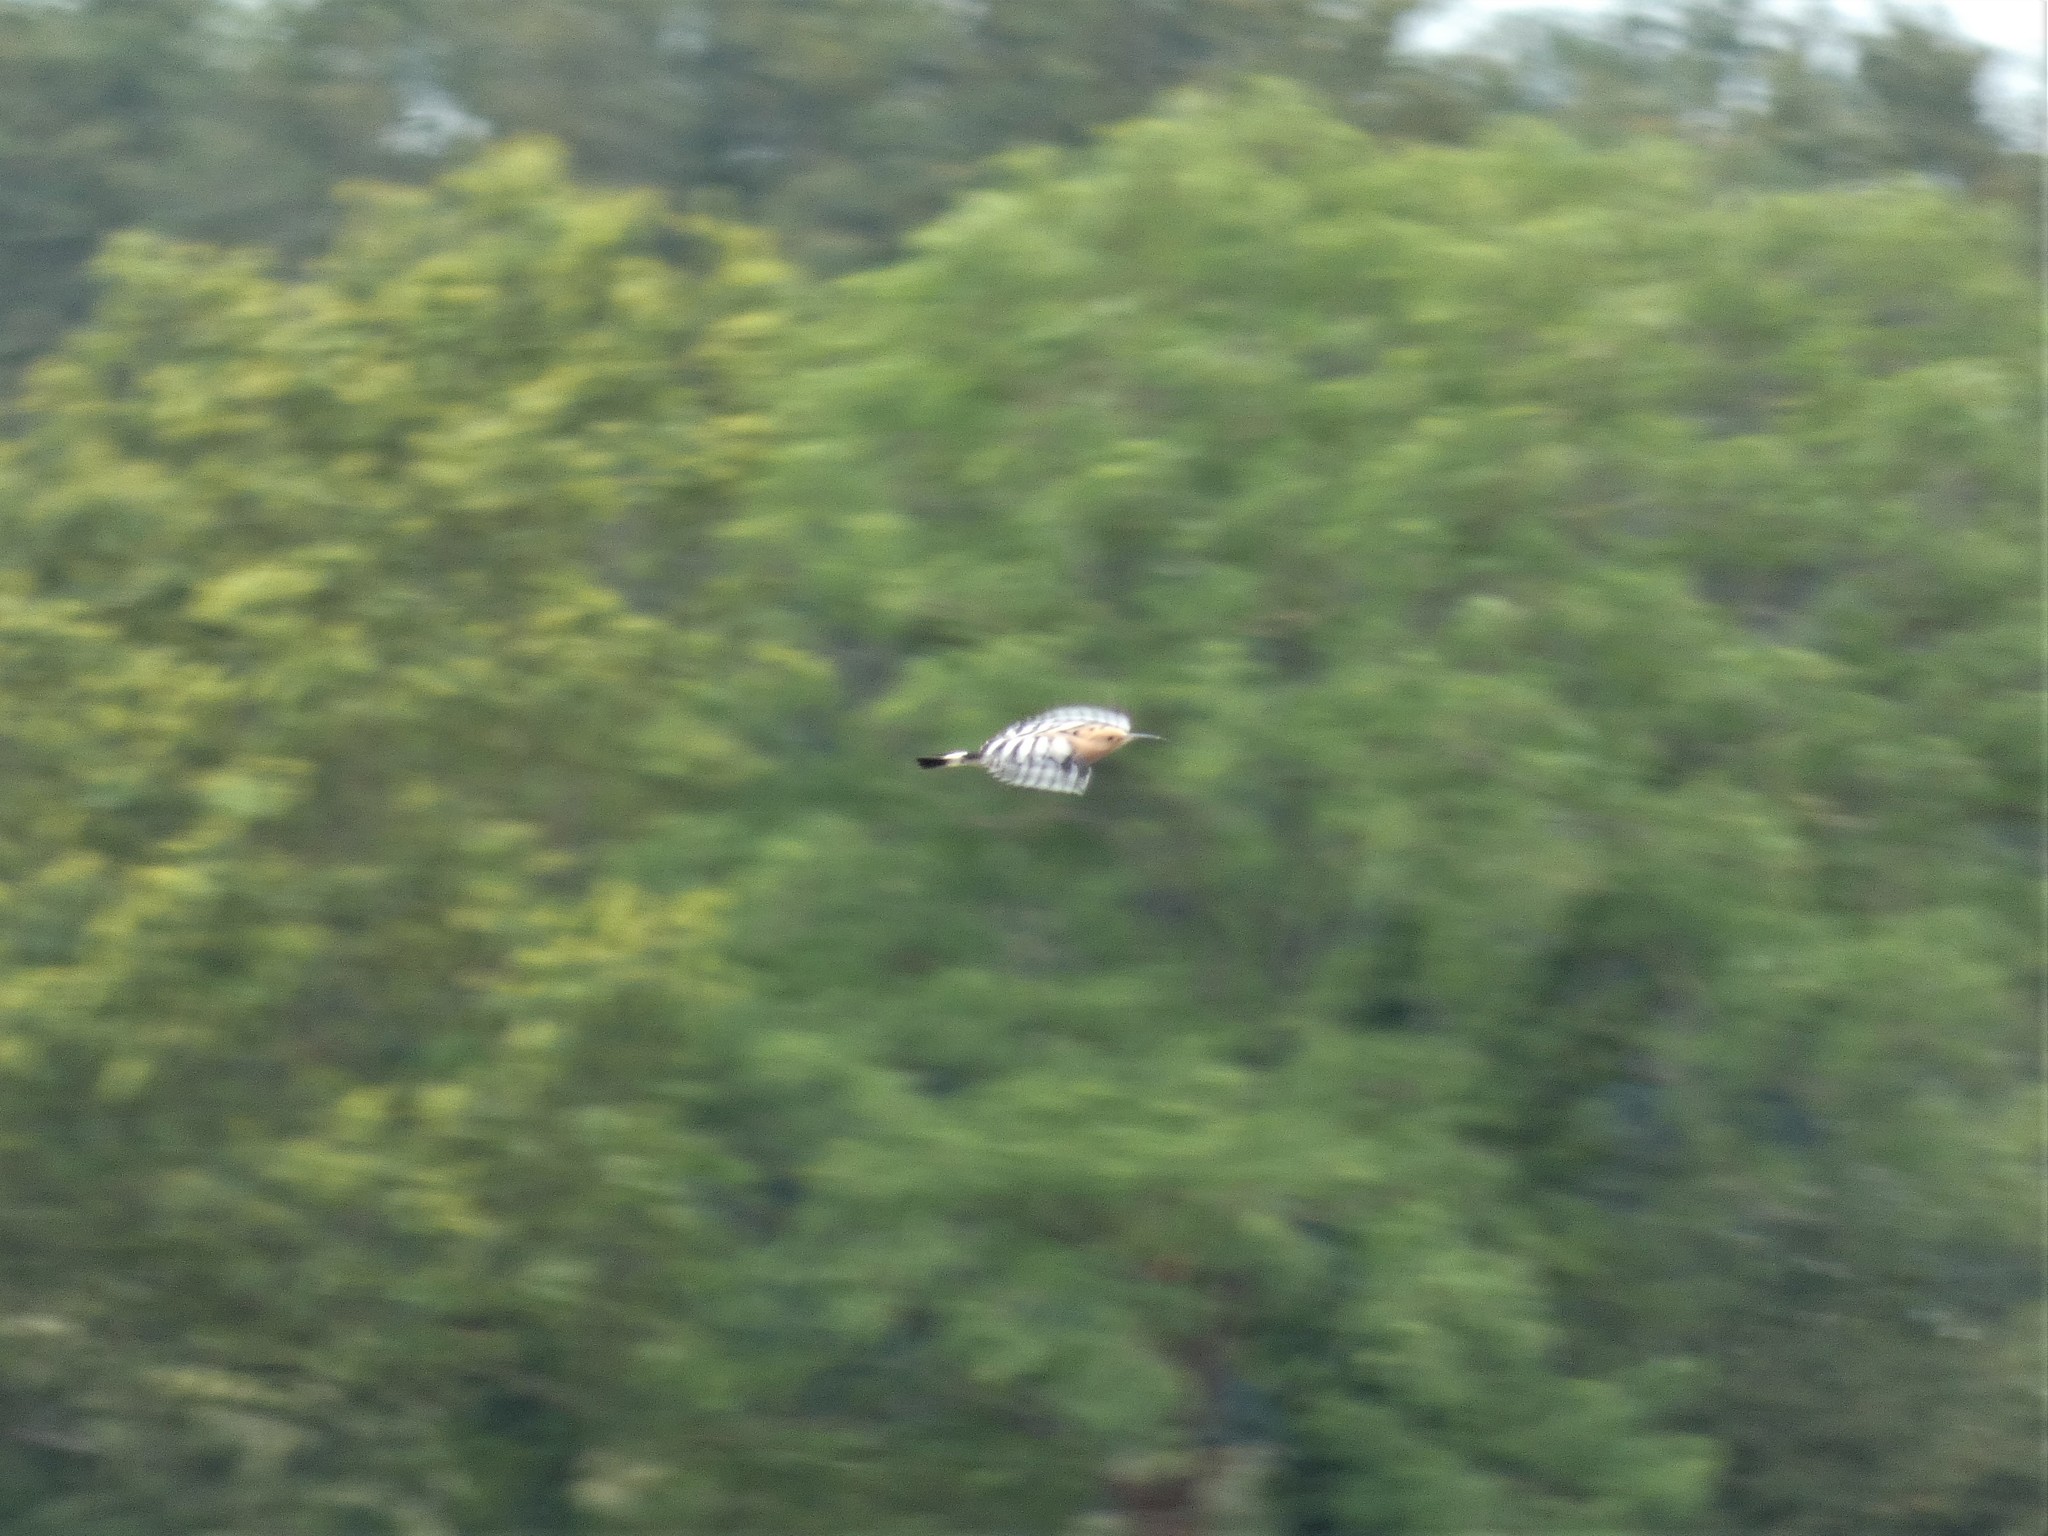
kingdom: Animalia
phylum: Chordata
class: Aves
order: Bucerotiformes
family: Upupidae
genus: Upupa
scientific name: Upupa epops
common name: Eurasian hoopoe
